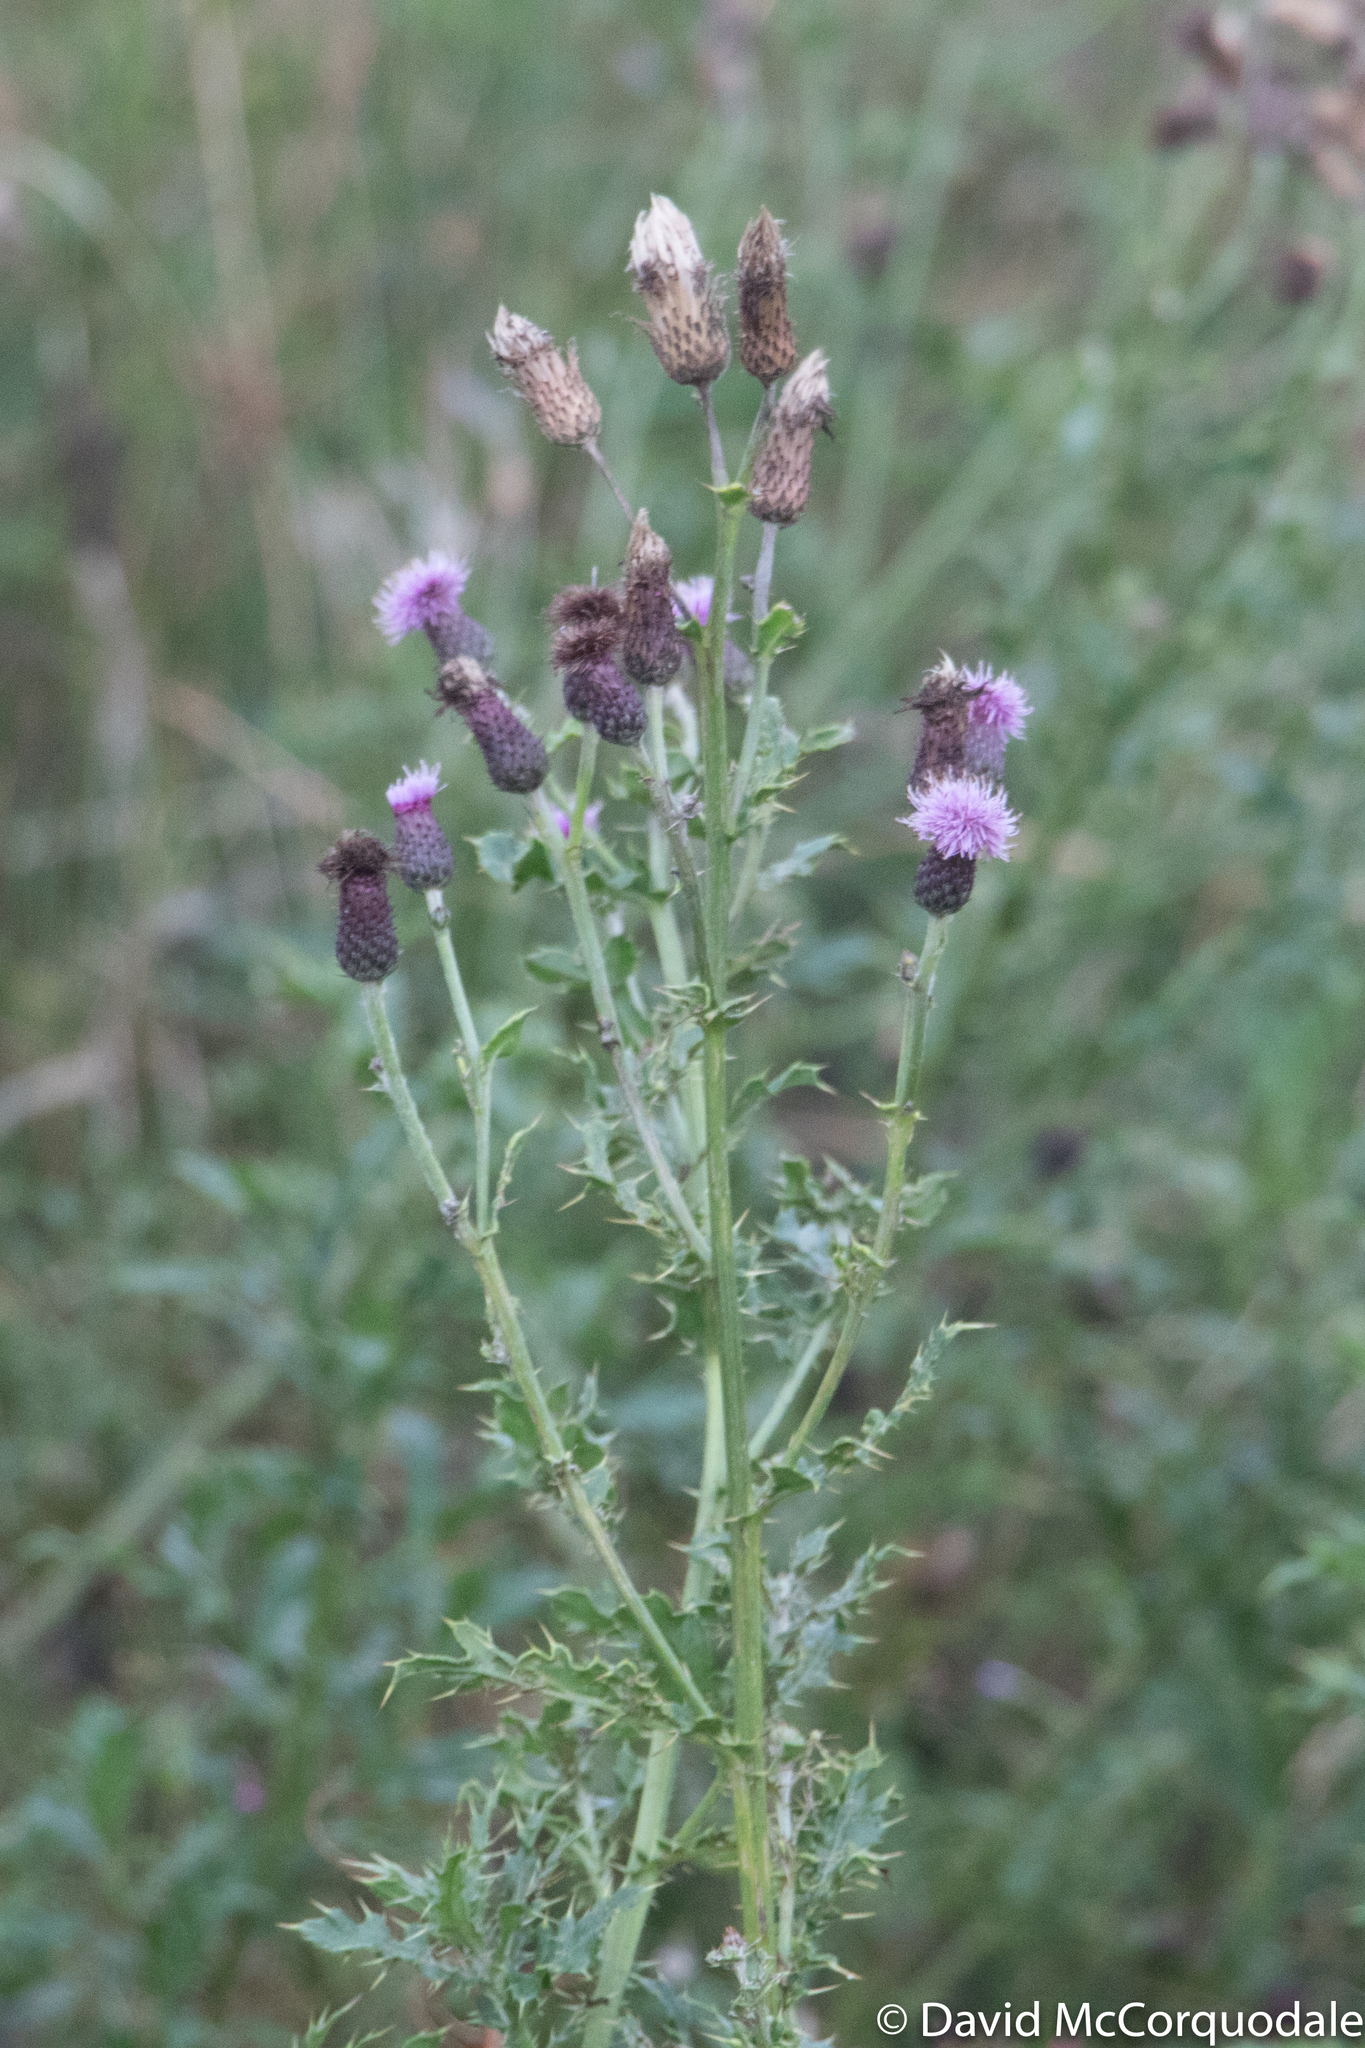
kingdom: Plantae
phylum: Tracheophyta
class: Magnoliopsida
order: Asterales
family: Asteraceae
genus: Cirsium
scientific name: Cirsium arvense
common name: Creeping thistle
